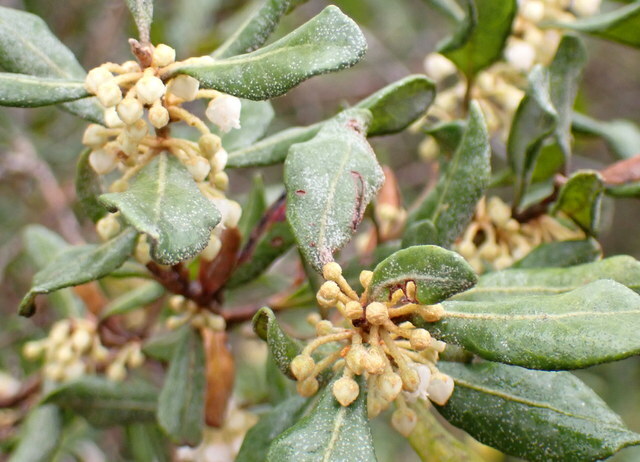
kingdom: Plantae
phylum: Tracheophyta
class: Magnoliopsida
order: Ericales
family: Ericaceae
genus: Lyonia
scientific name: Lyonia ferruginea
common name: Rusty lyonia
